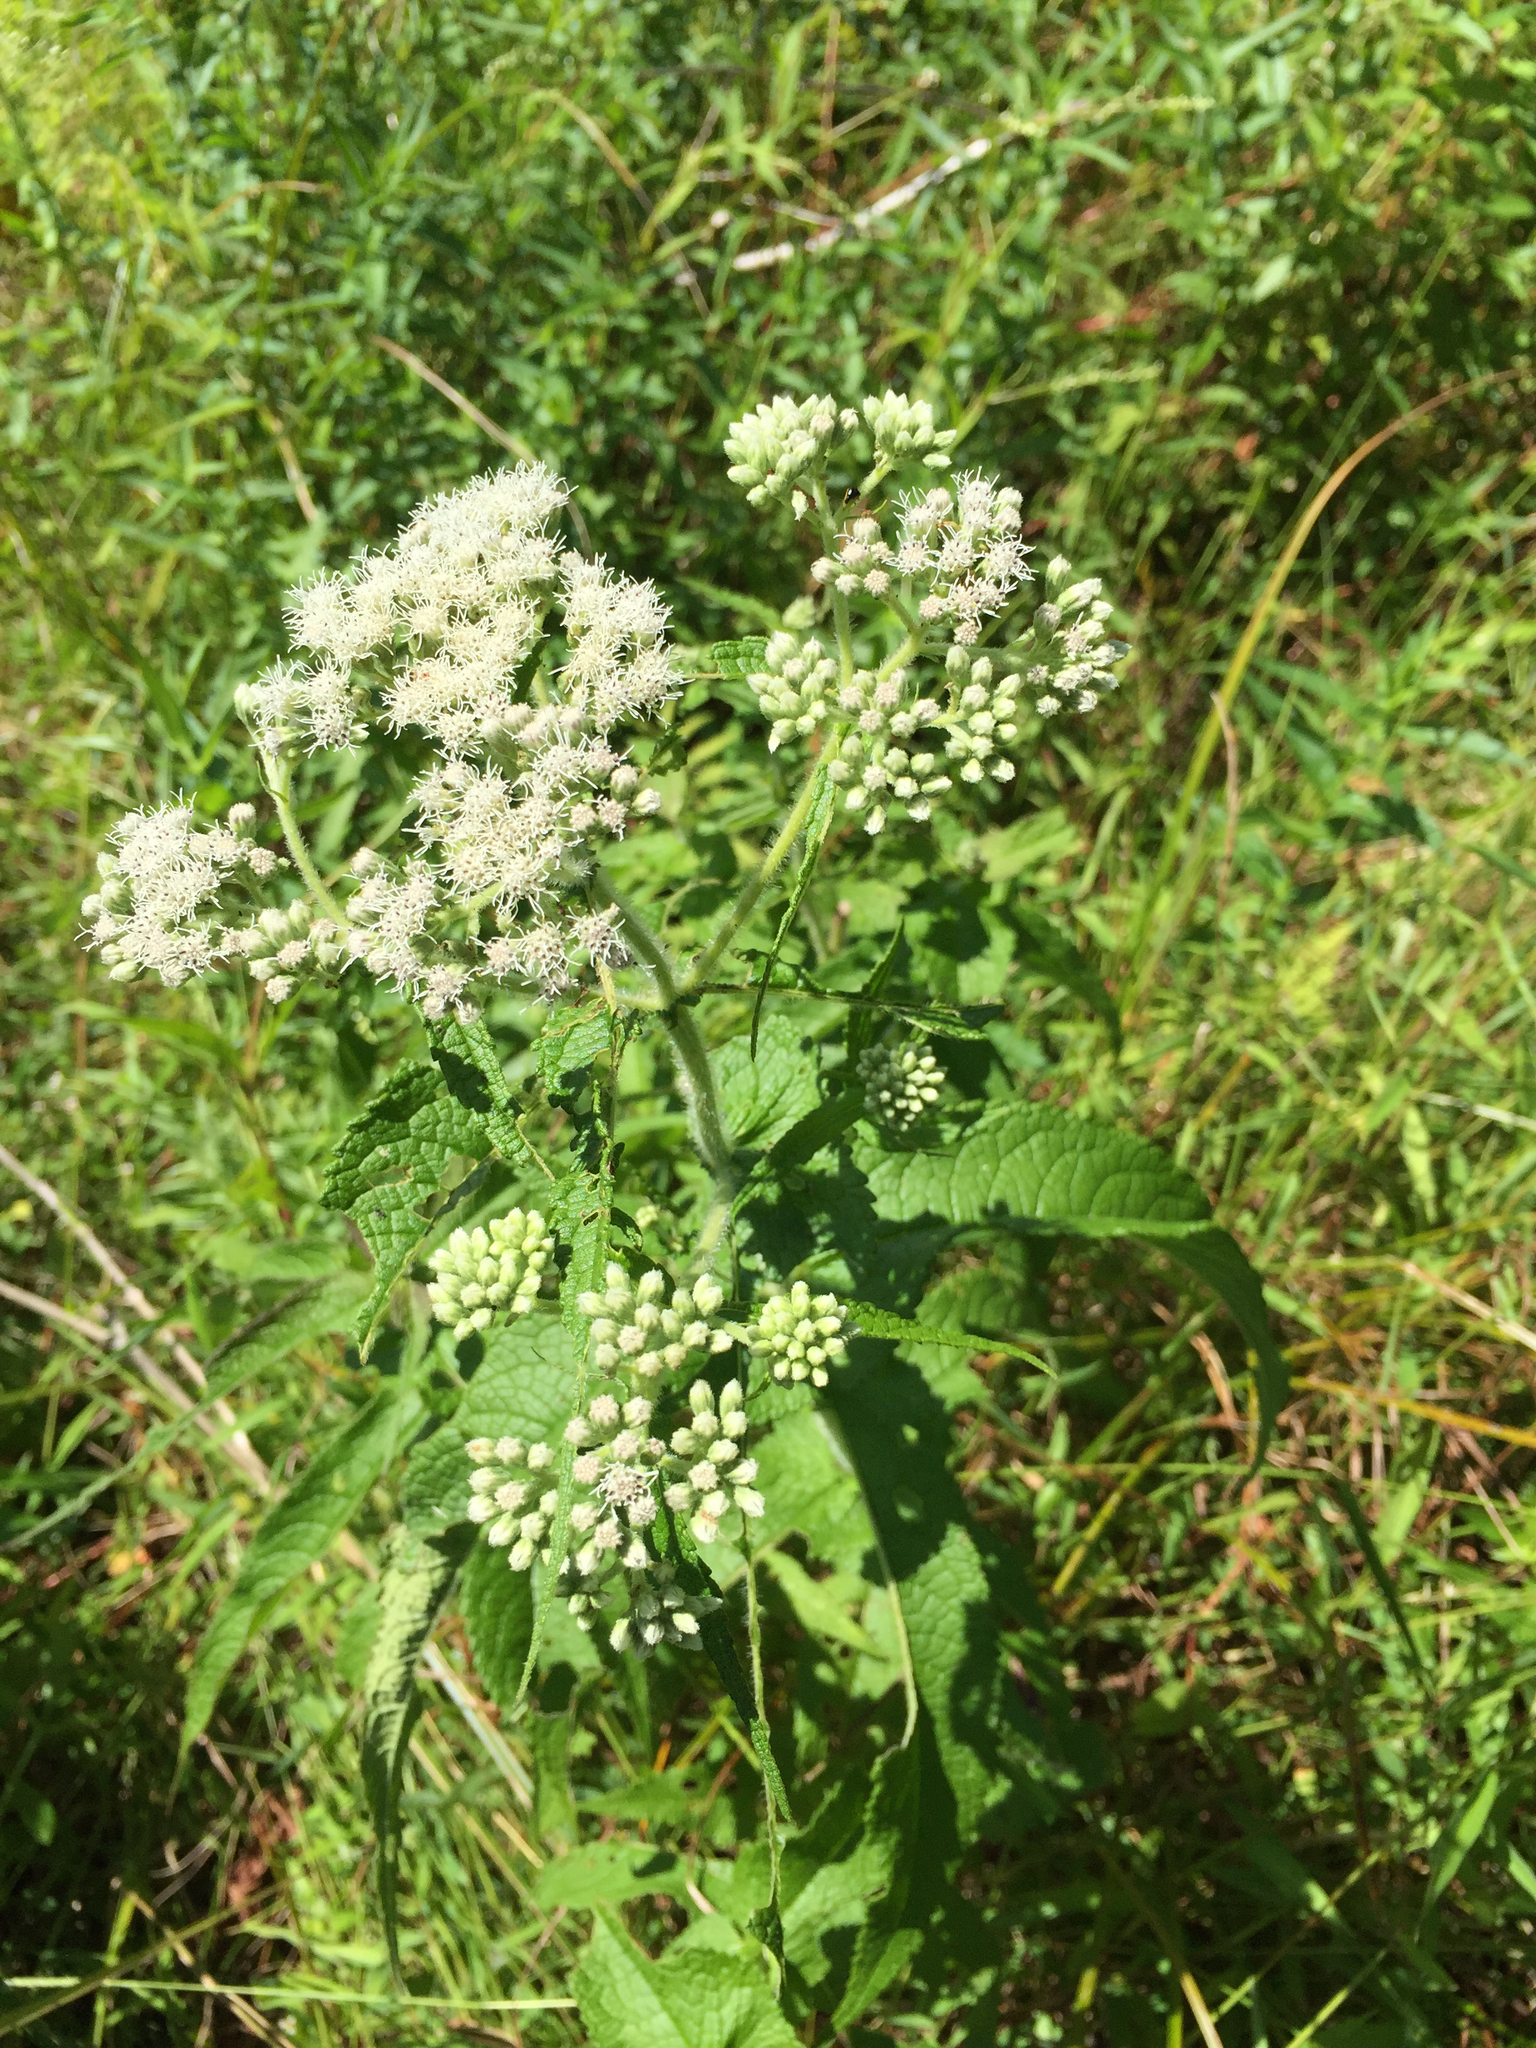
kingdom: Plantae
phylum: Tracheophyta
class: Magnoliopsida
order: Asterales
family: Asteraceae
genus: Eupatorium
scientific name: Eupatorium perfoliatum
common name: Boneset
